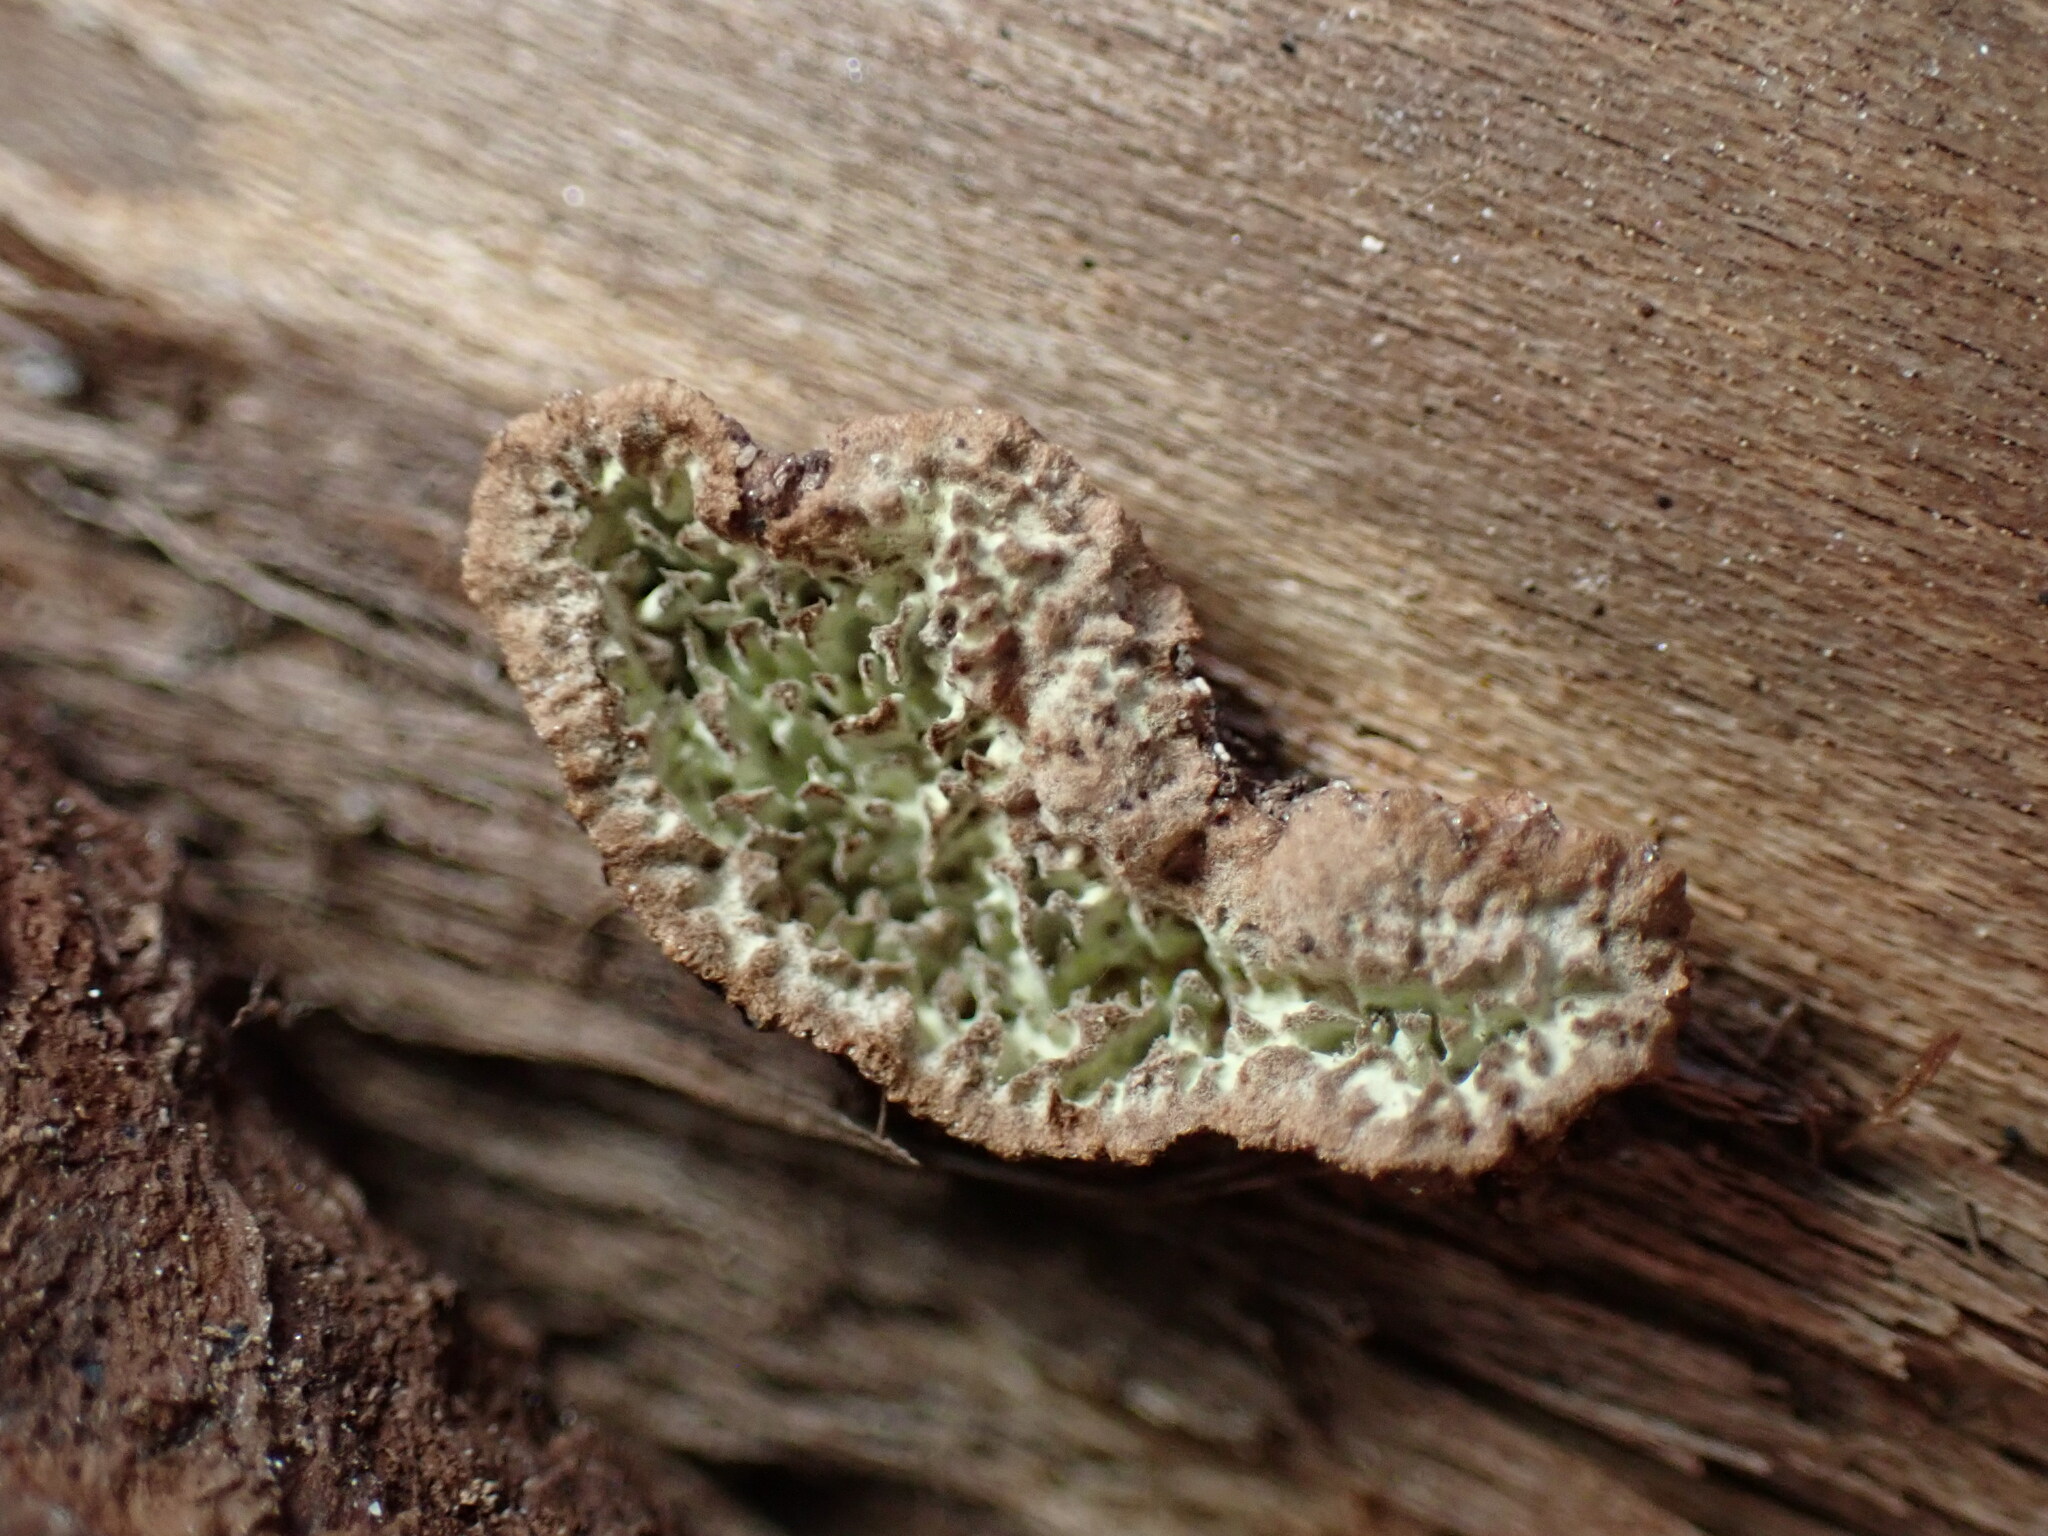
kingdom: Fungi
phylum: Basidiomycota
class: Agaricomycetes
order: Polyporales
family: Polyporaceae
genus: Dentocorticium
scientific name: Dentocorticium portoricense
